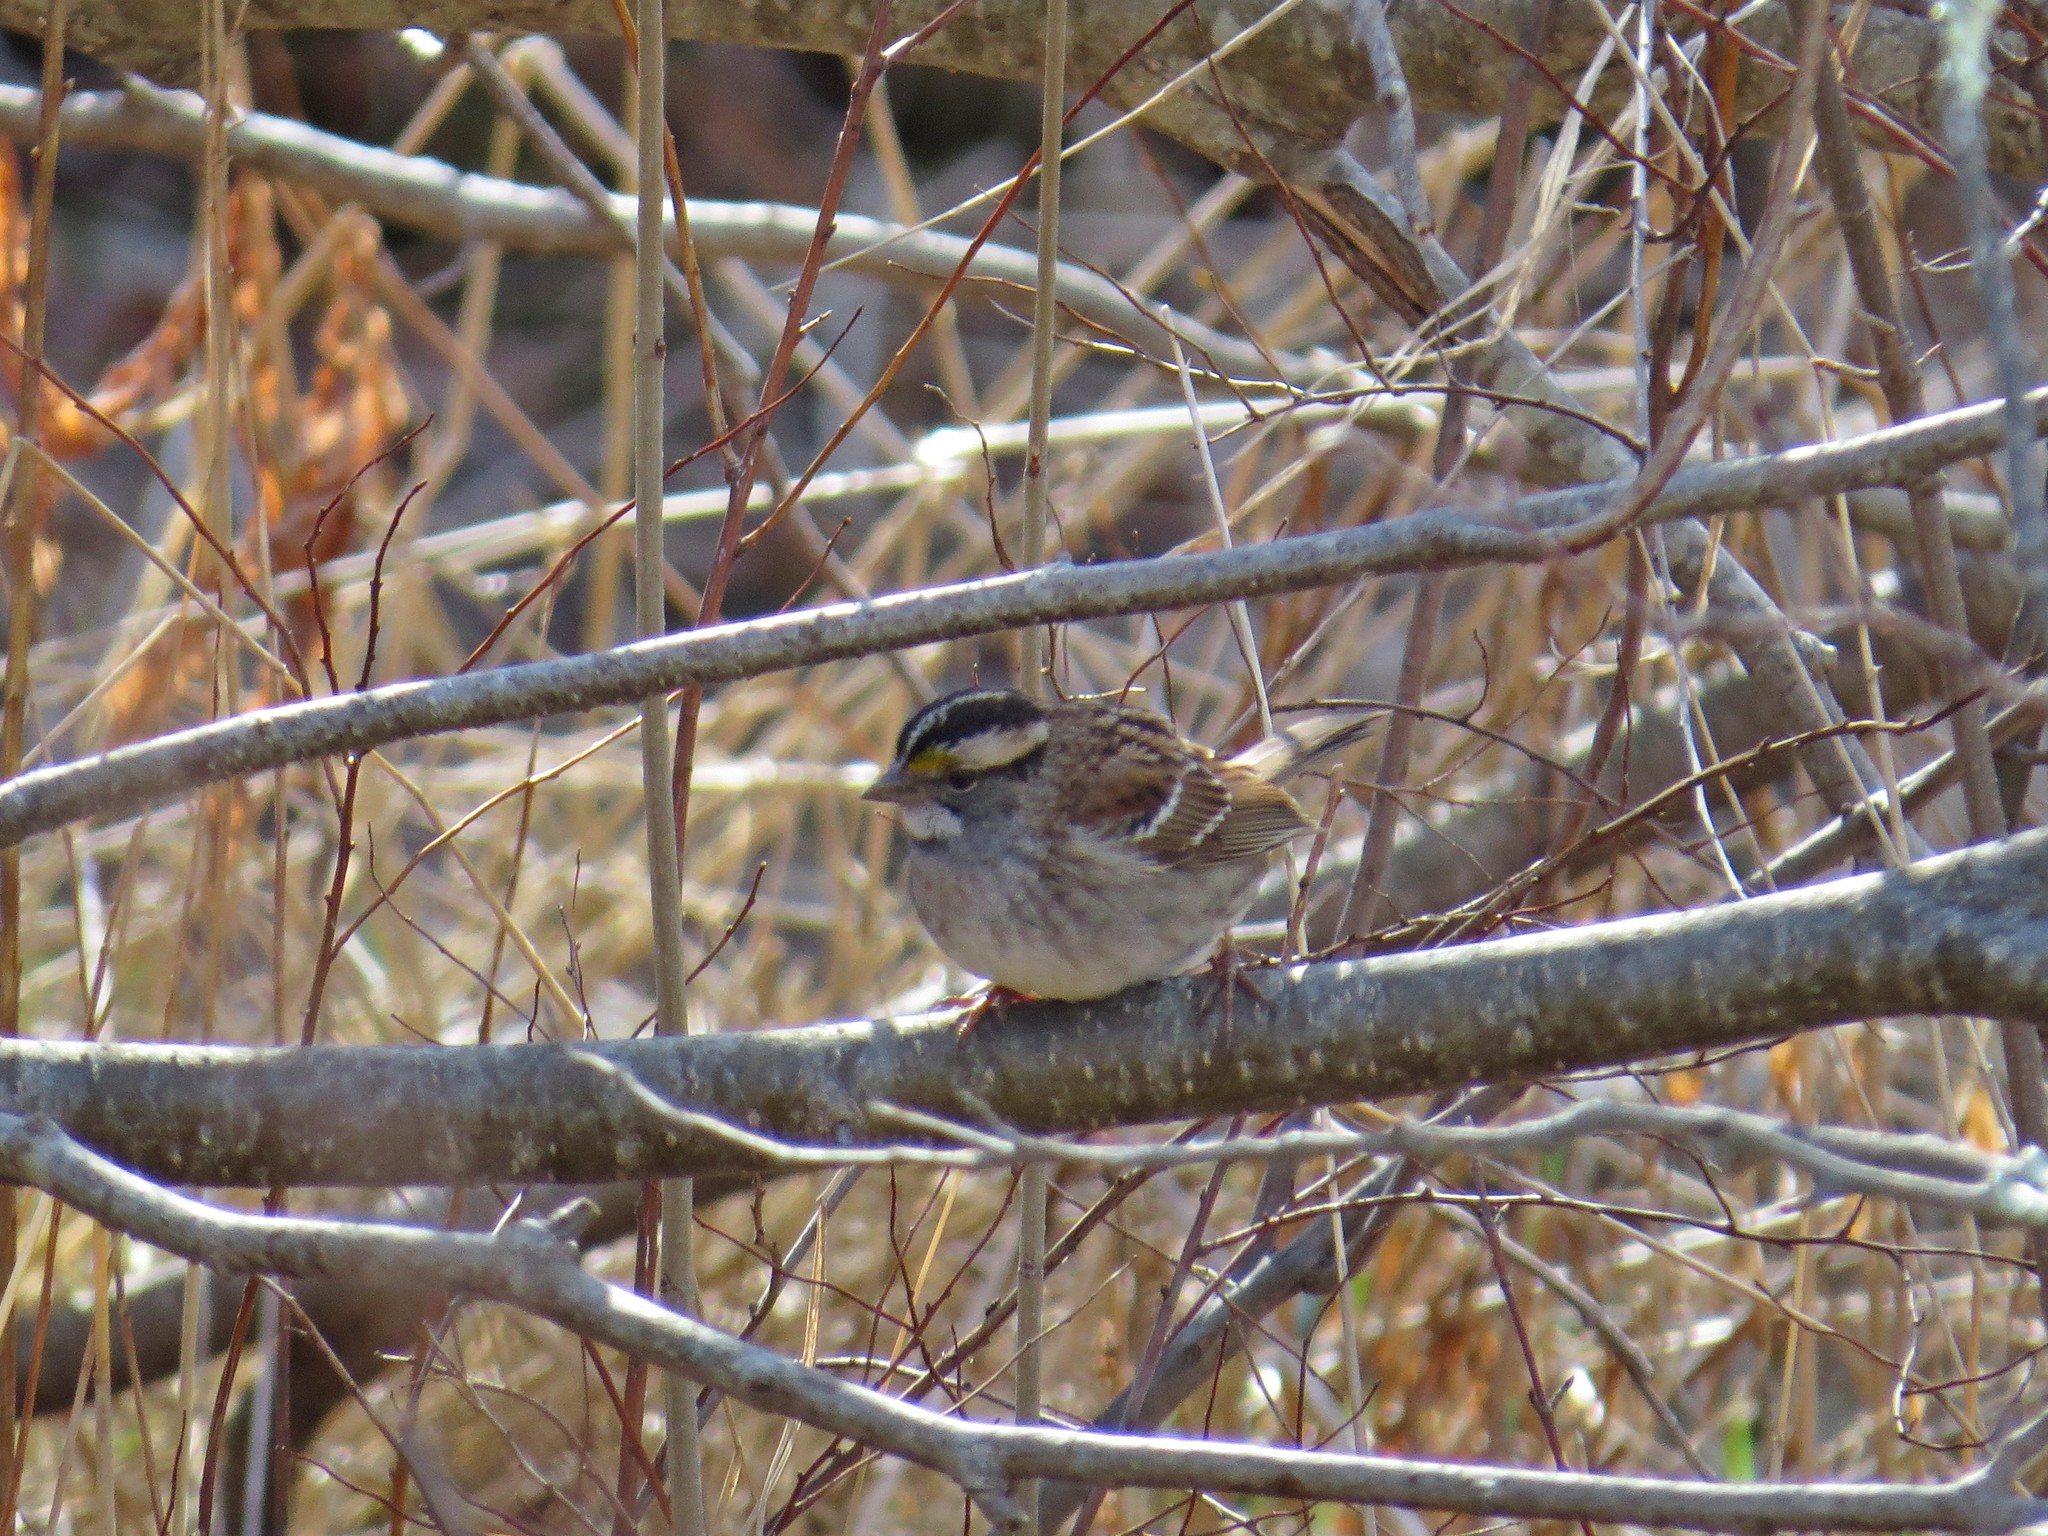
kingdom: Animalia
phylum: Chordata
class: Aves
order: Passeriformes
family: Passerellidae
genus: Zonotrichia
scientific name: Zonotrichia albicollis
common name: White-throated sparrow
